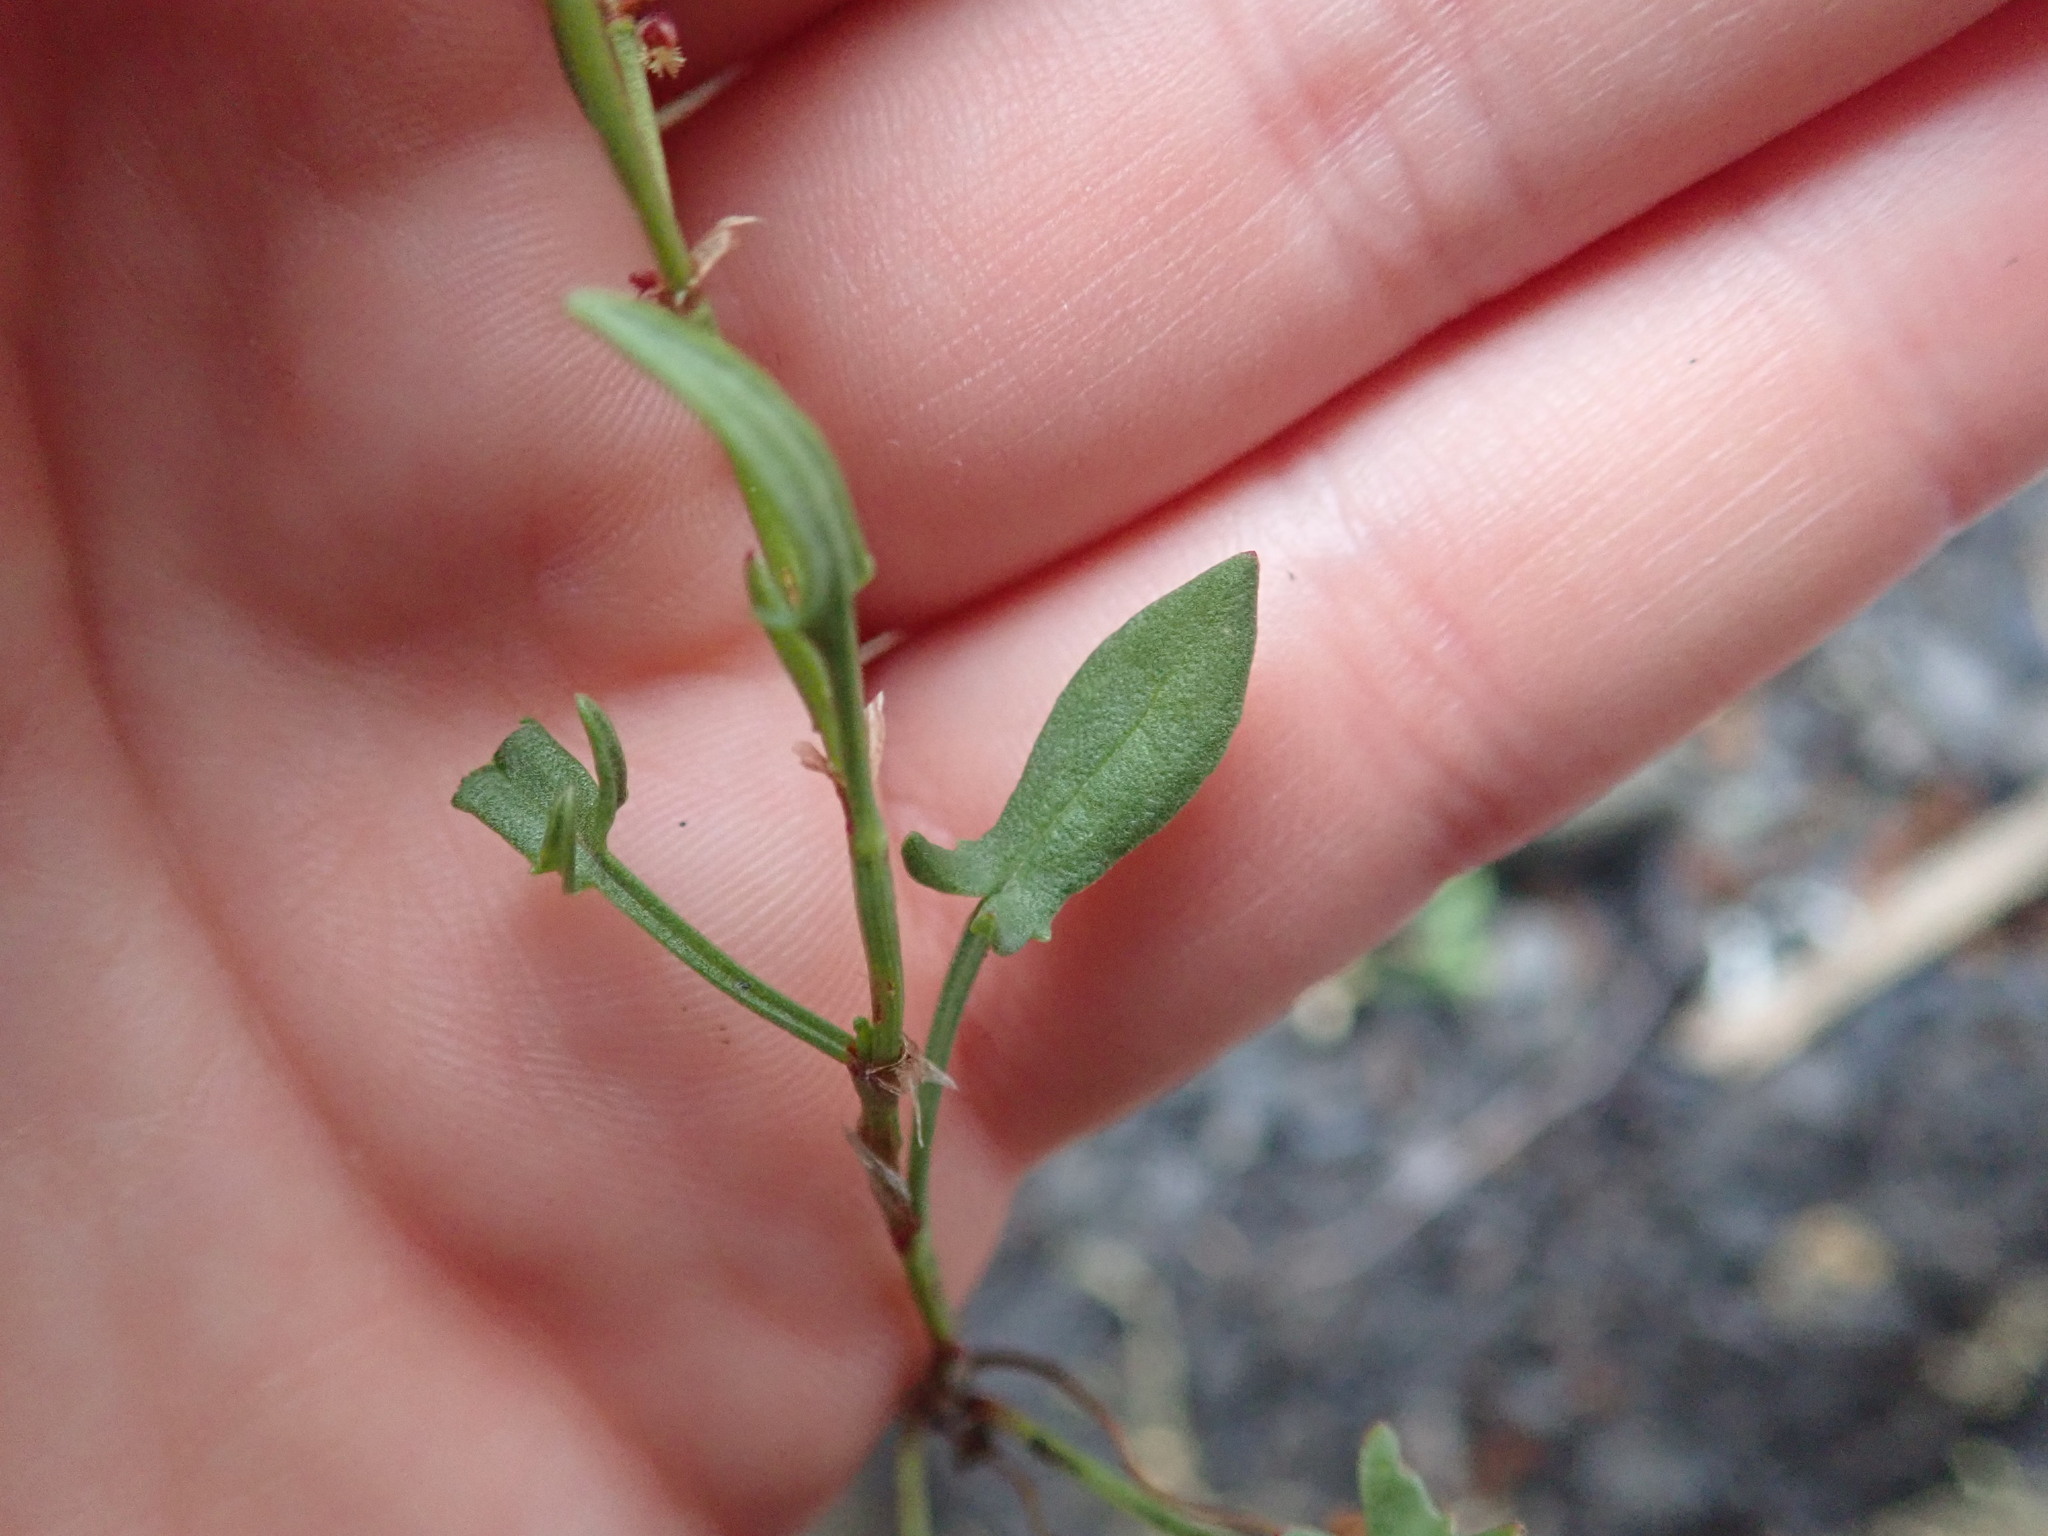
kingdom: Plantae
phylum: Tracheophyta
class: Magnoliopsida
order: Caryophyllales
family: Polygonaceae
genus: Rumex
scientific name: Rumex acetosella
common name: Common sheep sorrel
